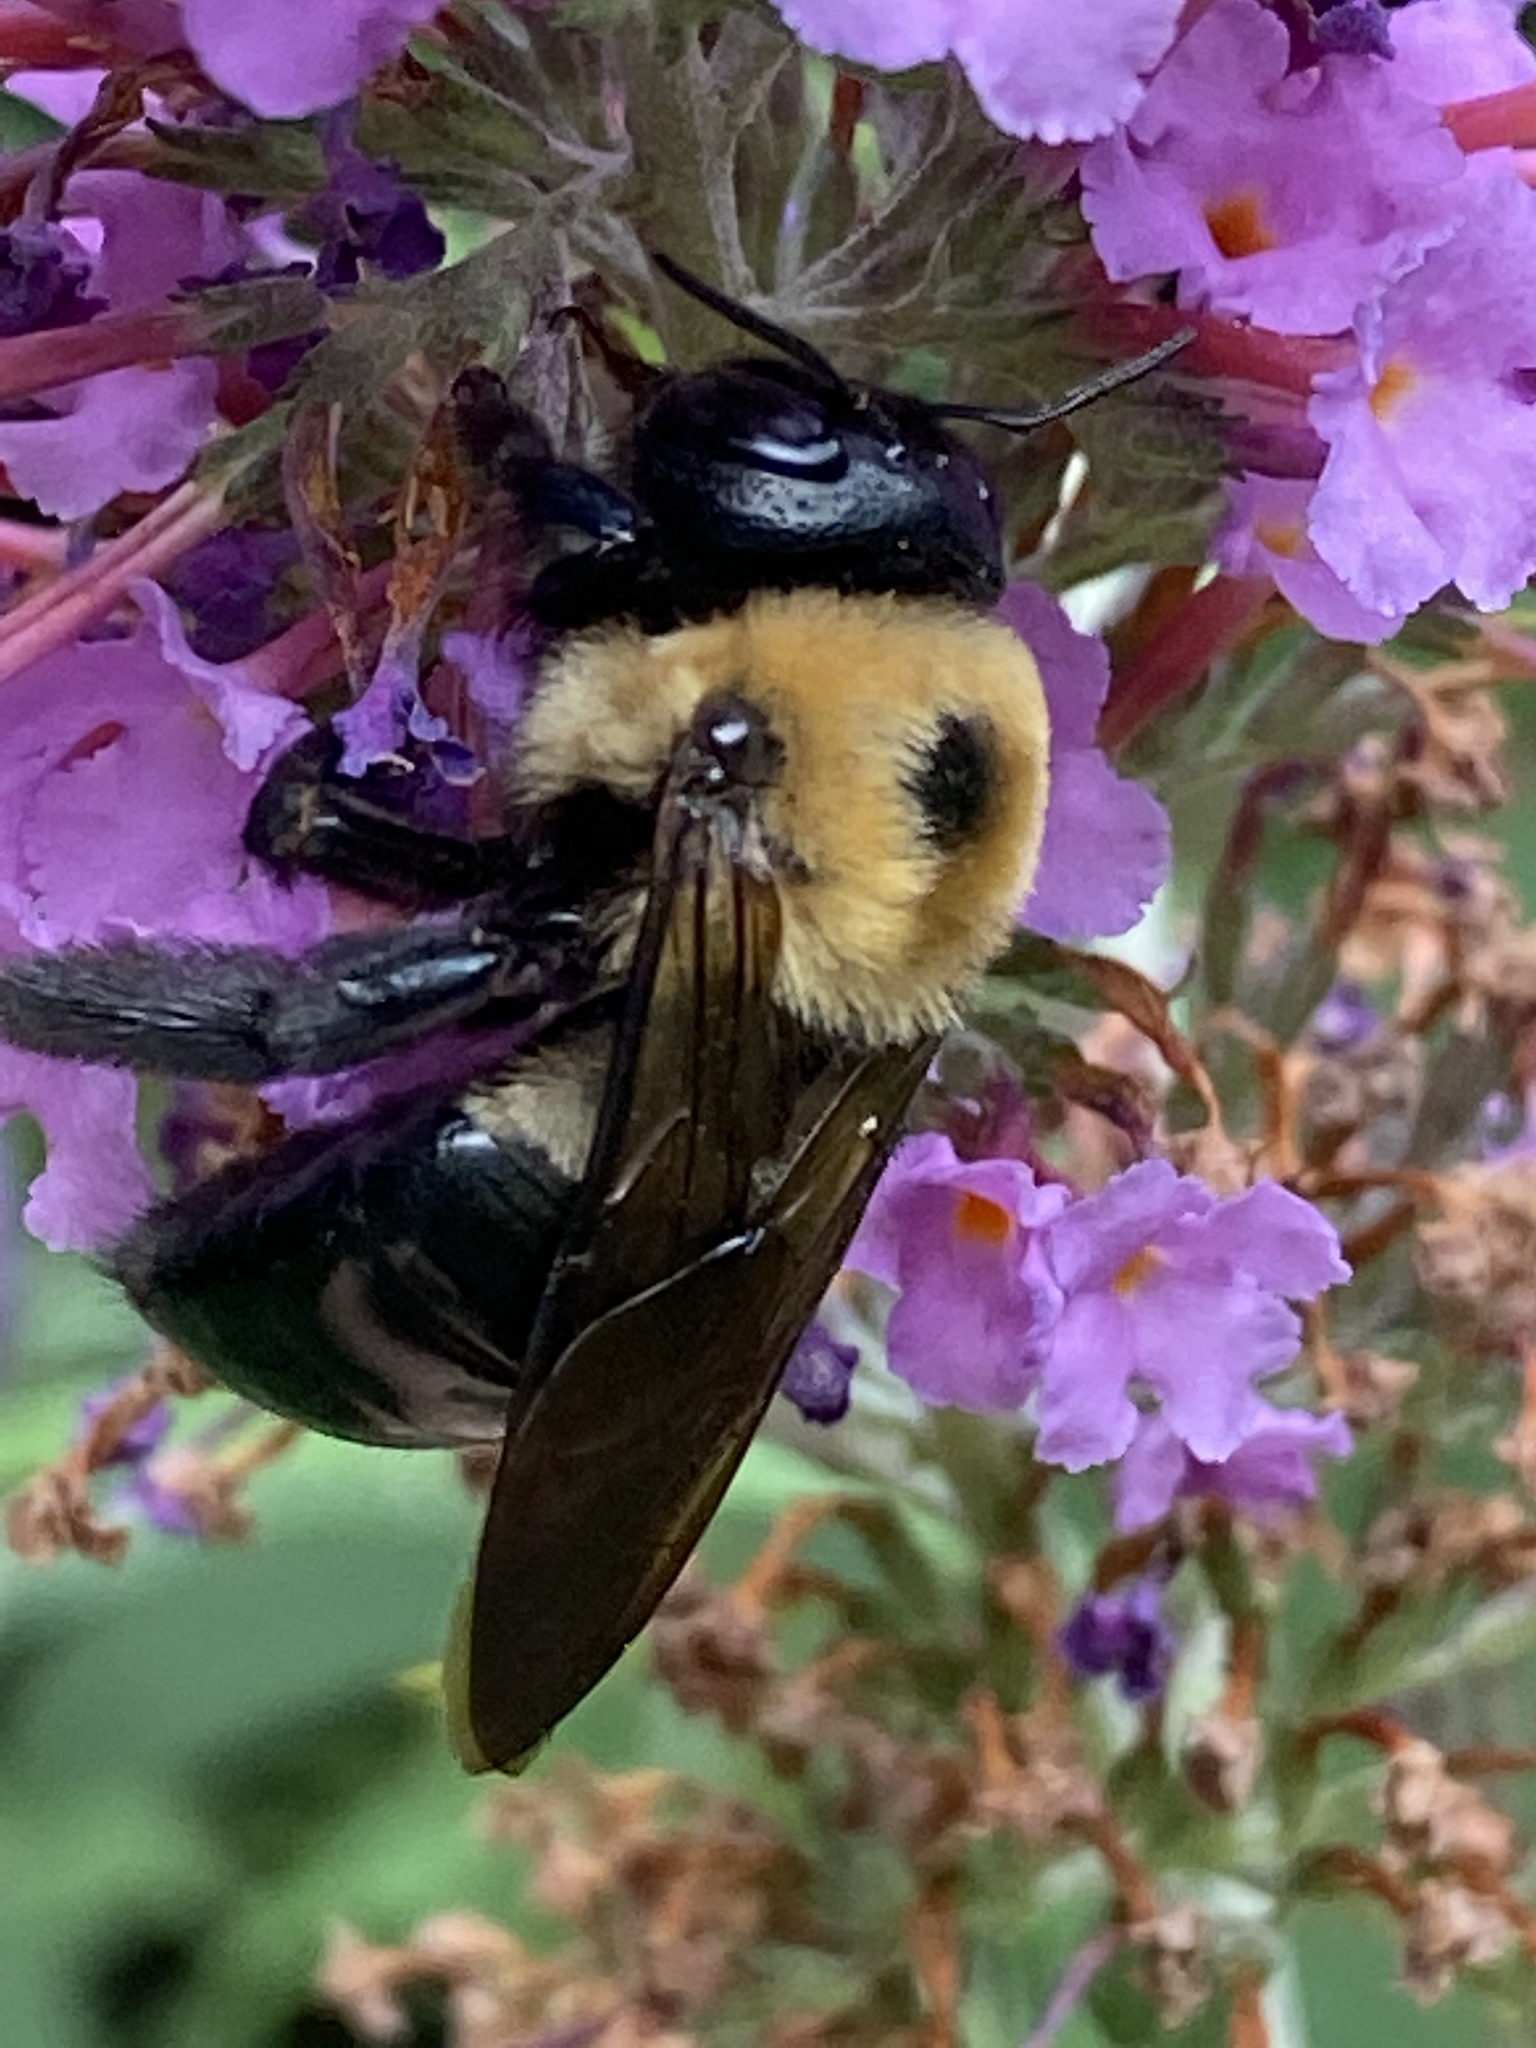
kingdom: Animalia
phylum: Arthropoda
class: Insecta
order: Hymenoptera
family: Apidae
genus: Xylocopa
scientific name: Xylocopa virginica
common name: Carpenter bee
